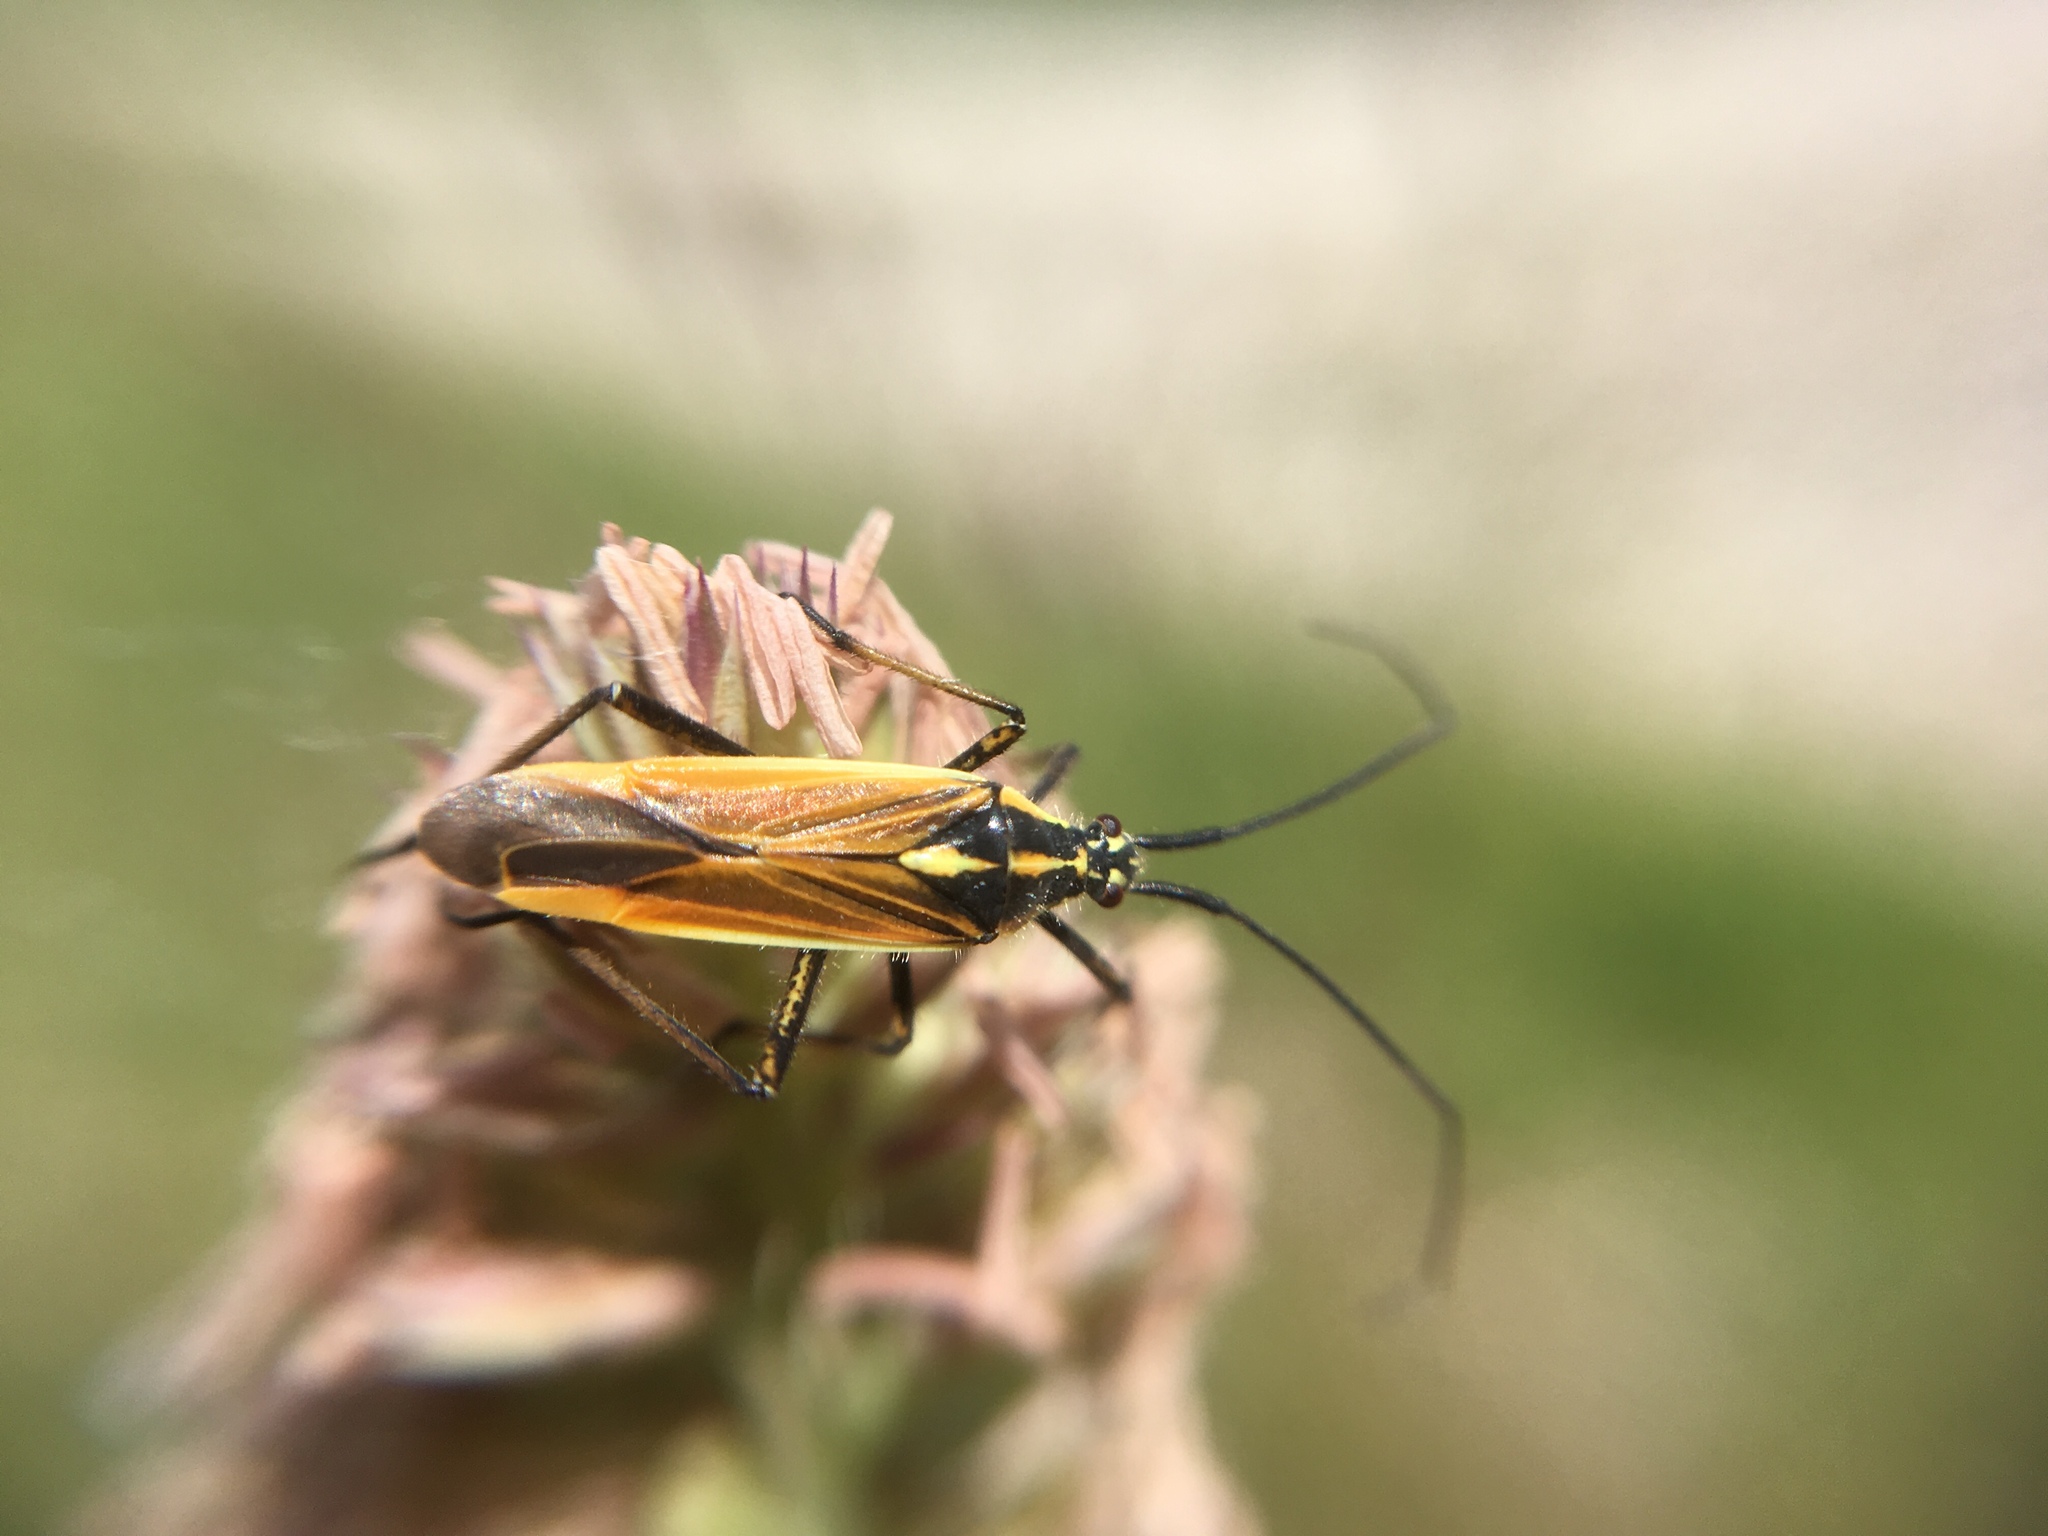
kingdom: Animalia
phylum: Arthropoda
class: Insecta
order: Hemiptera
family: Miridae
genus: Leptopterna
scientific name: Leptopterna dolabrata
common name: Meadow plant bug
